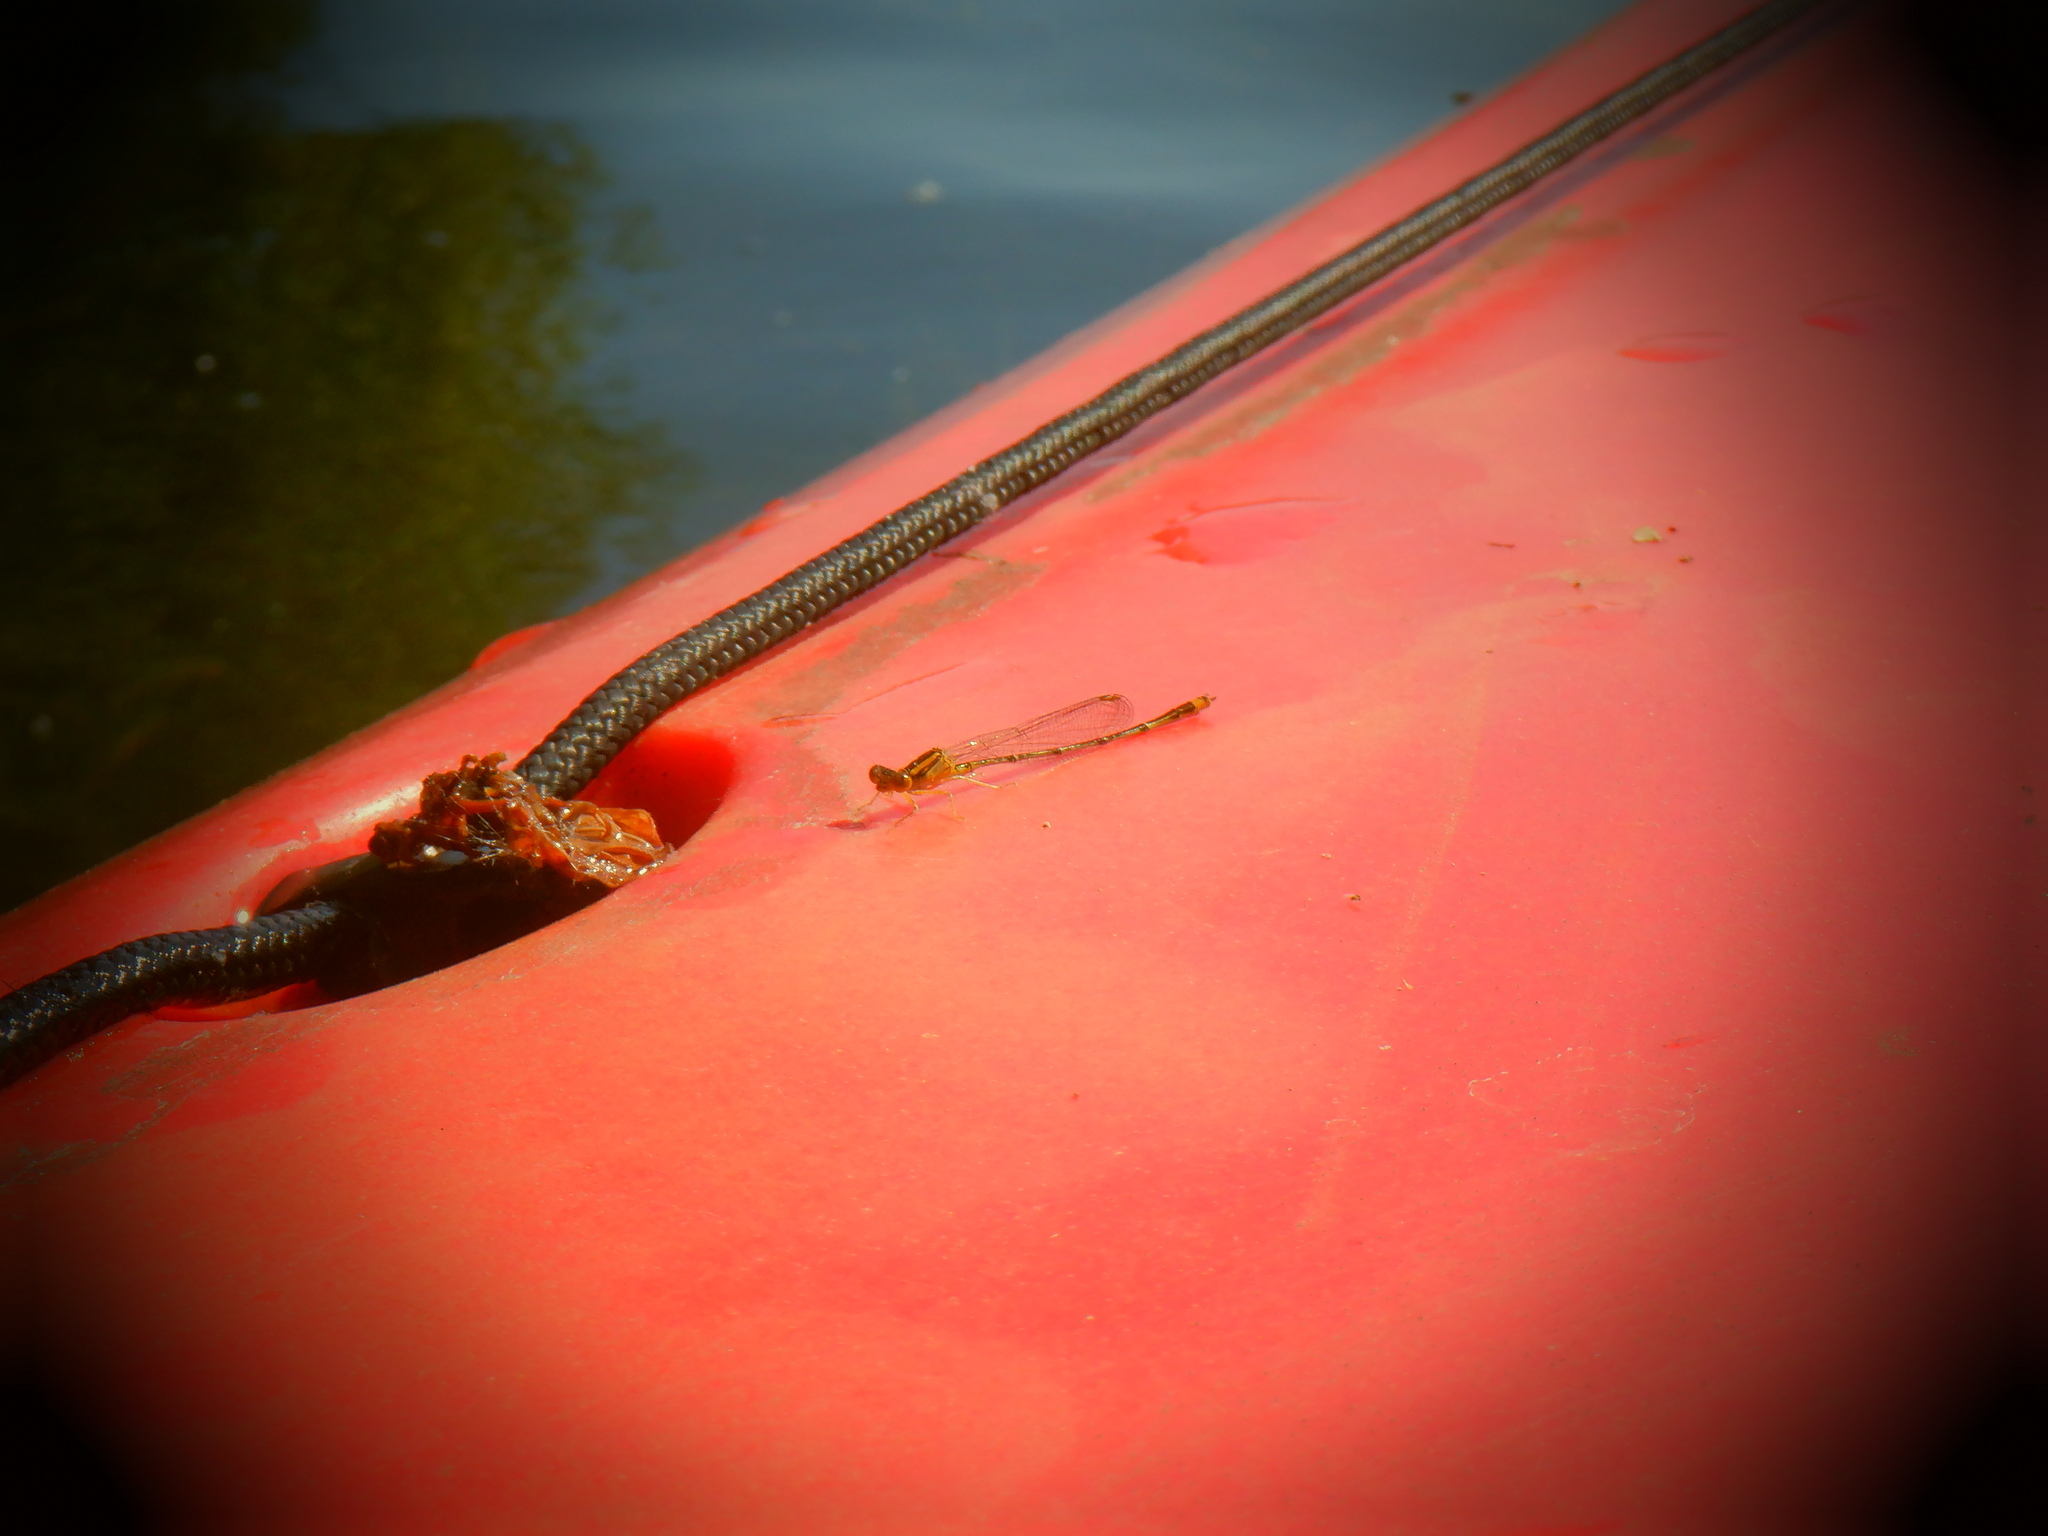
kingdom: Animalia
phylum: Arthropoda
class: Insecta
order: Odonata
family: Coenagrionidae
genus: Enallagma
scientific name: Enallagma signatum
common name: Orange bluet
